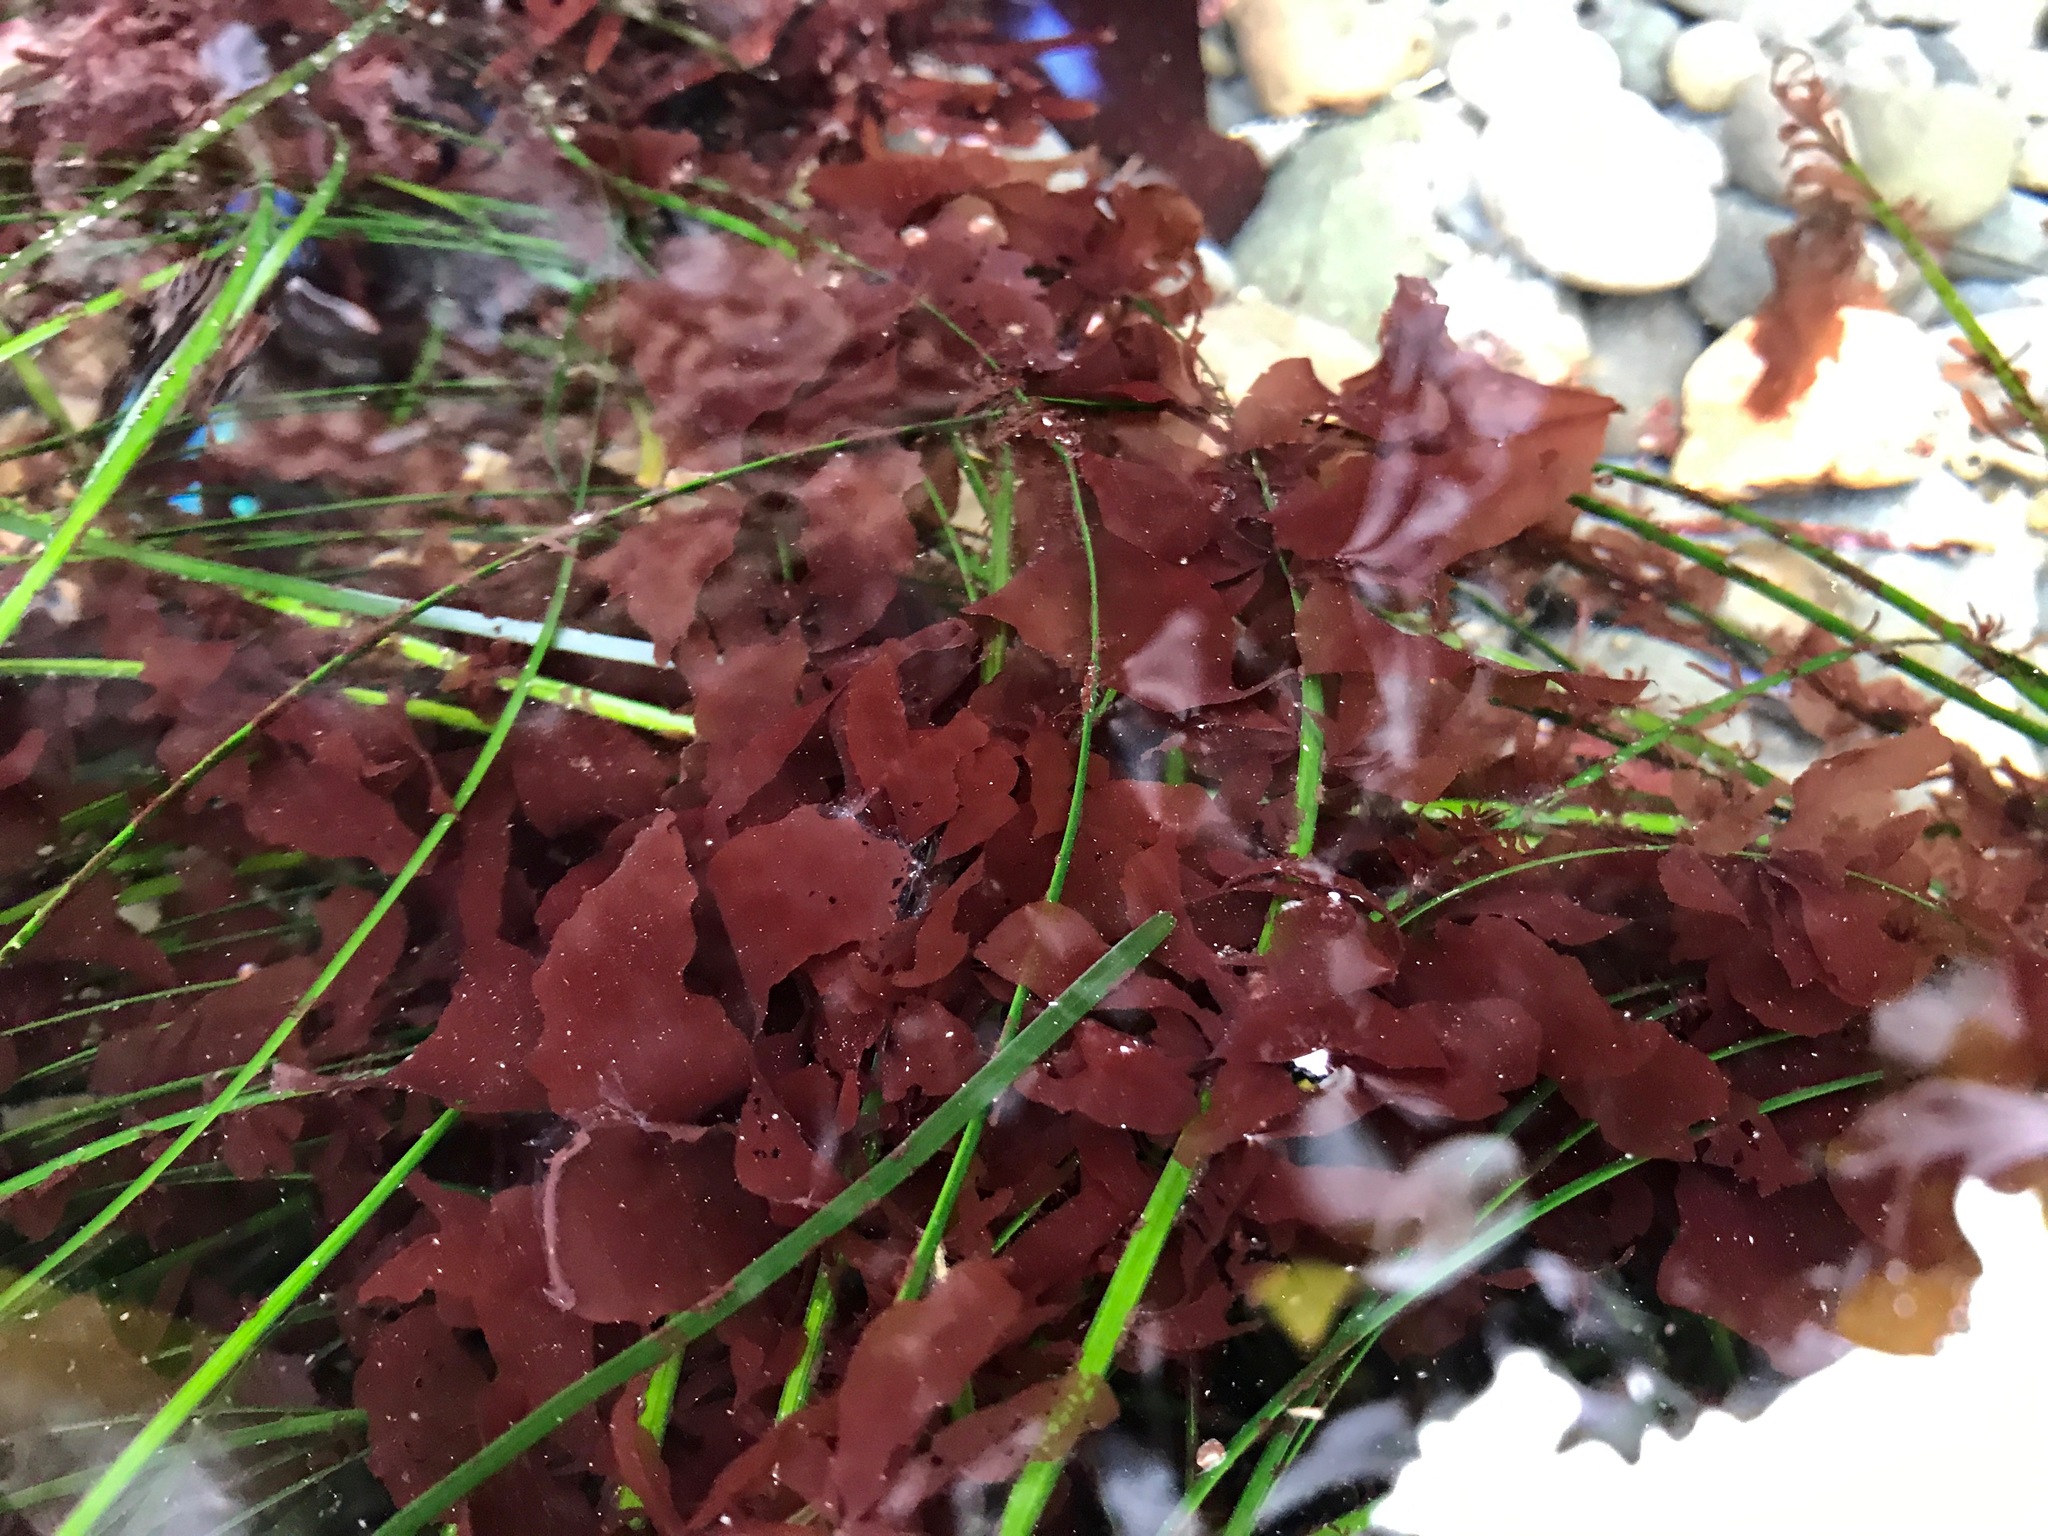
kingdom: Plantae
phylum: Rhodophyta
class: Compsopogonophyceae
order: Erythropeltidales
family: Erythrotrichiaceae
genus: Smithora
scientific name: Smithora naiadum
